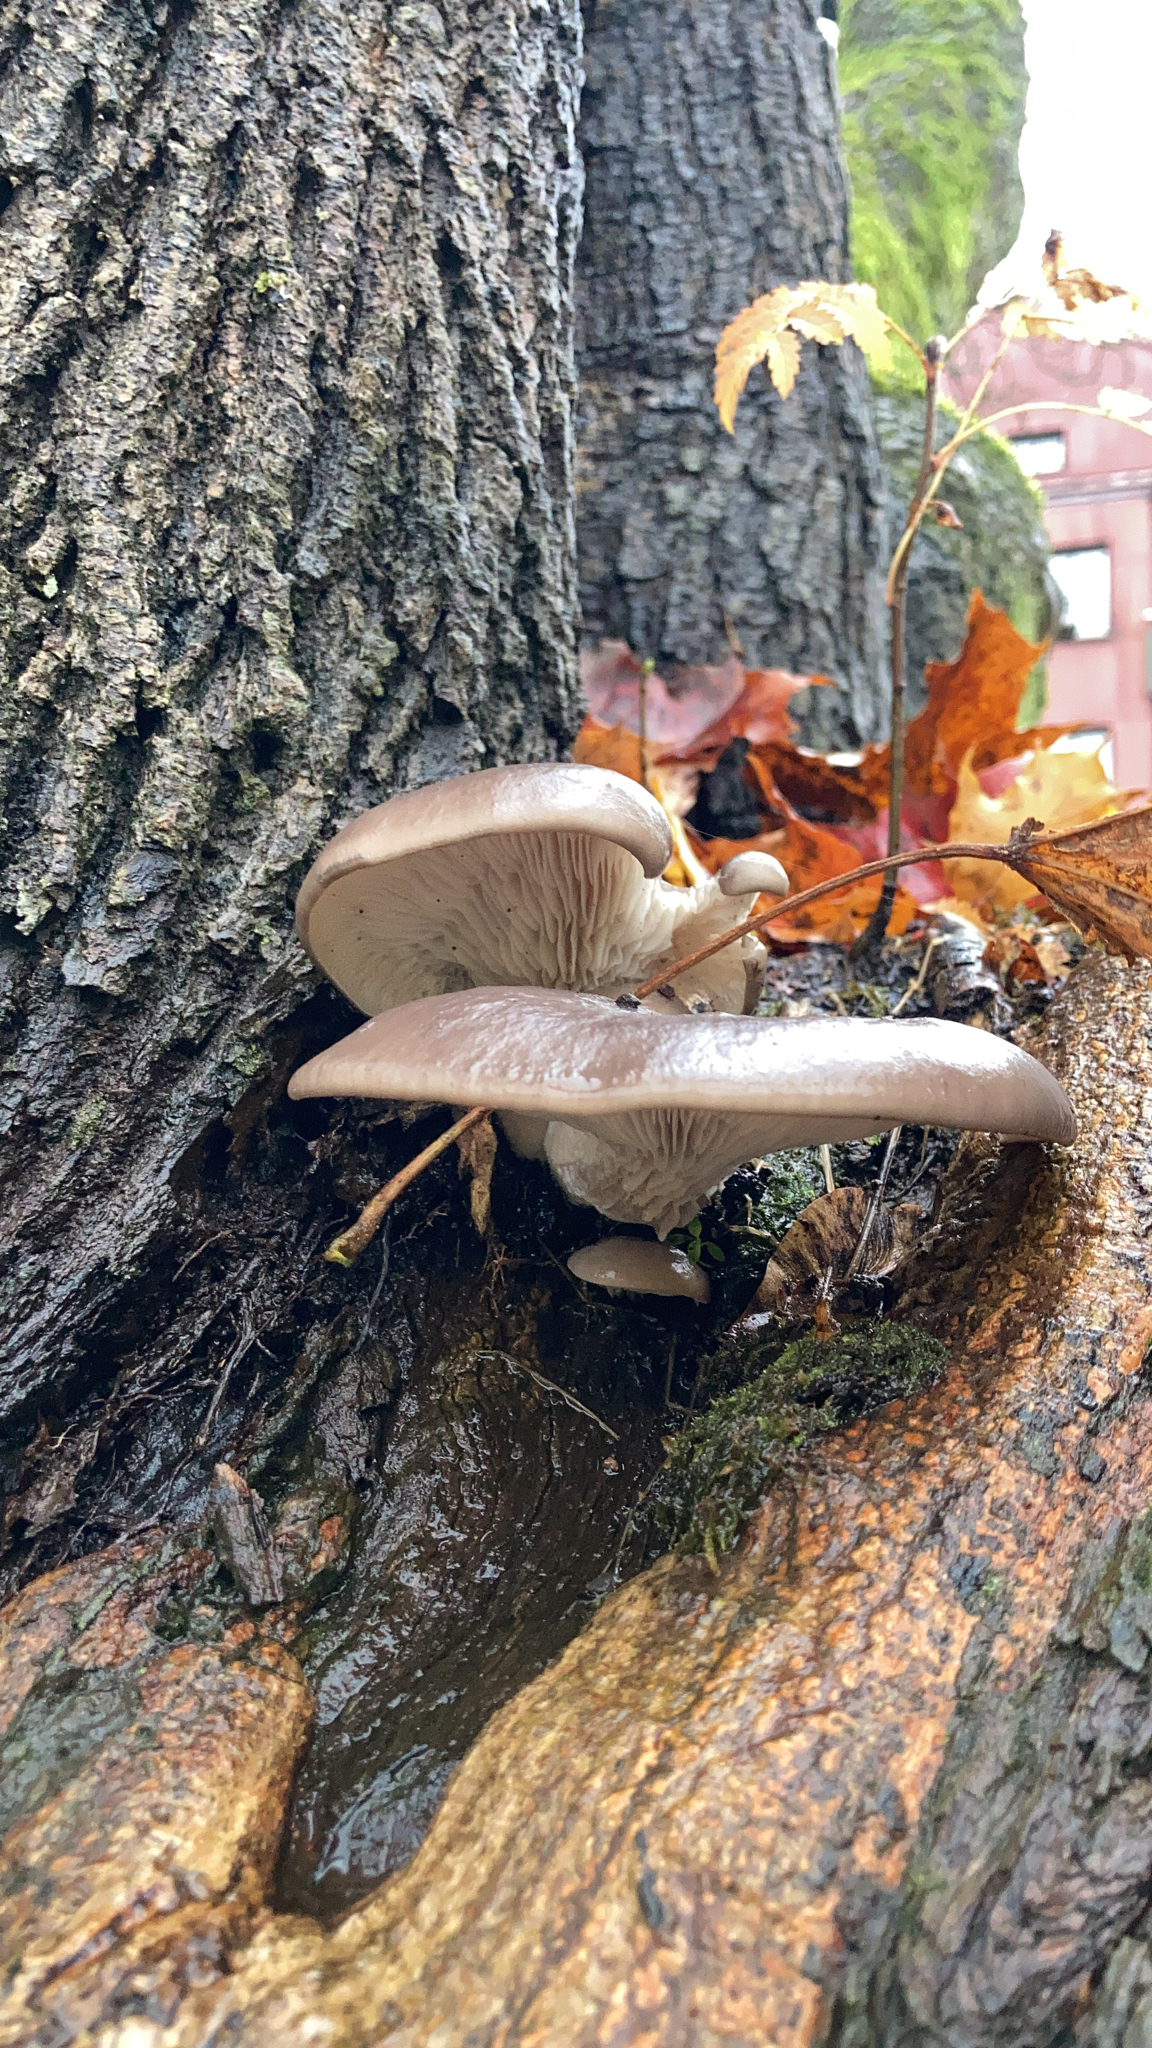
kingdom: Fungi
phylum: Basidiomycota
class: Agaricomycetes
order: Agaricales
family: Pleurotaceae
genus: Pleurotus
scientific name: Pleurotus ostreatus
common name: Oyster mushroom
